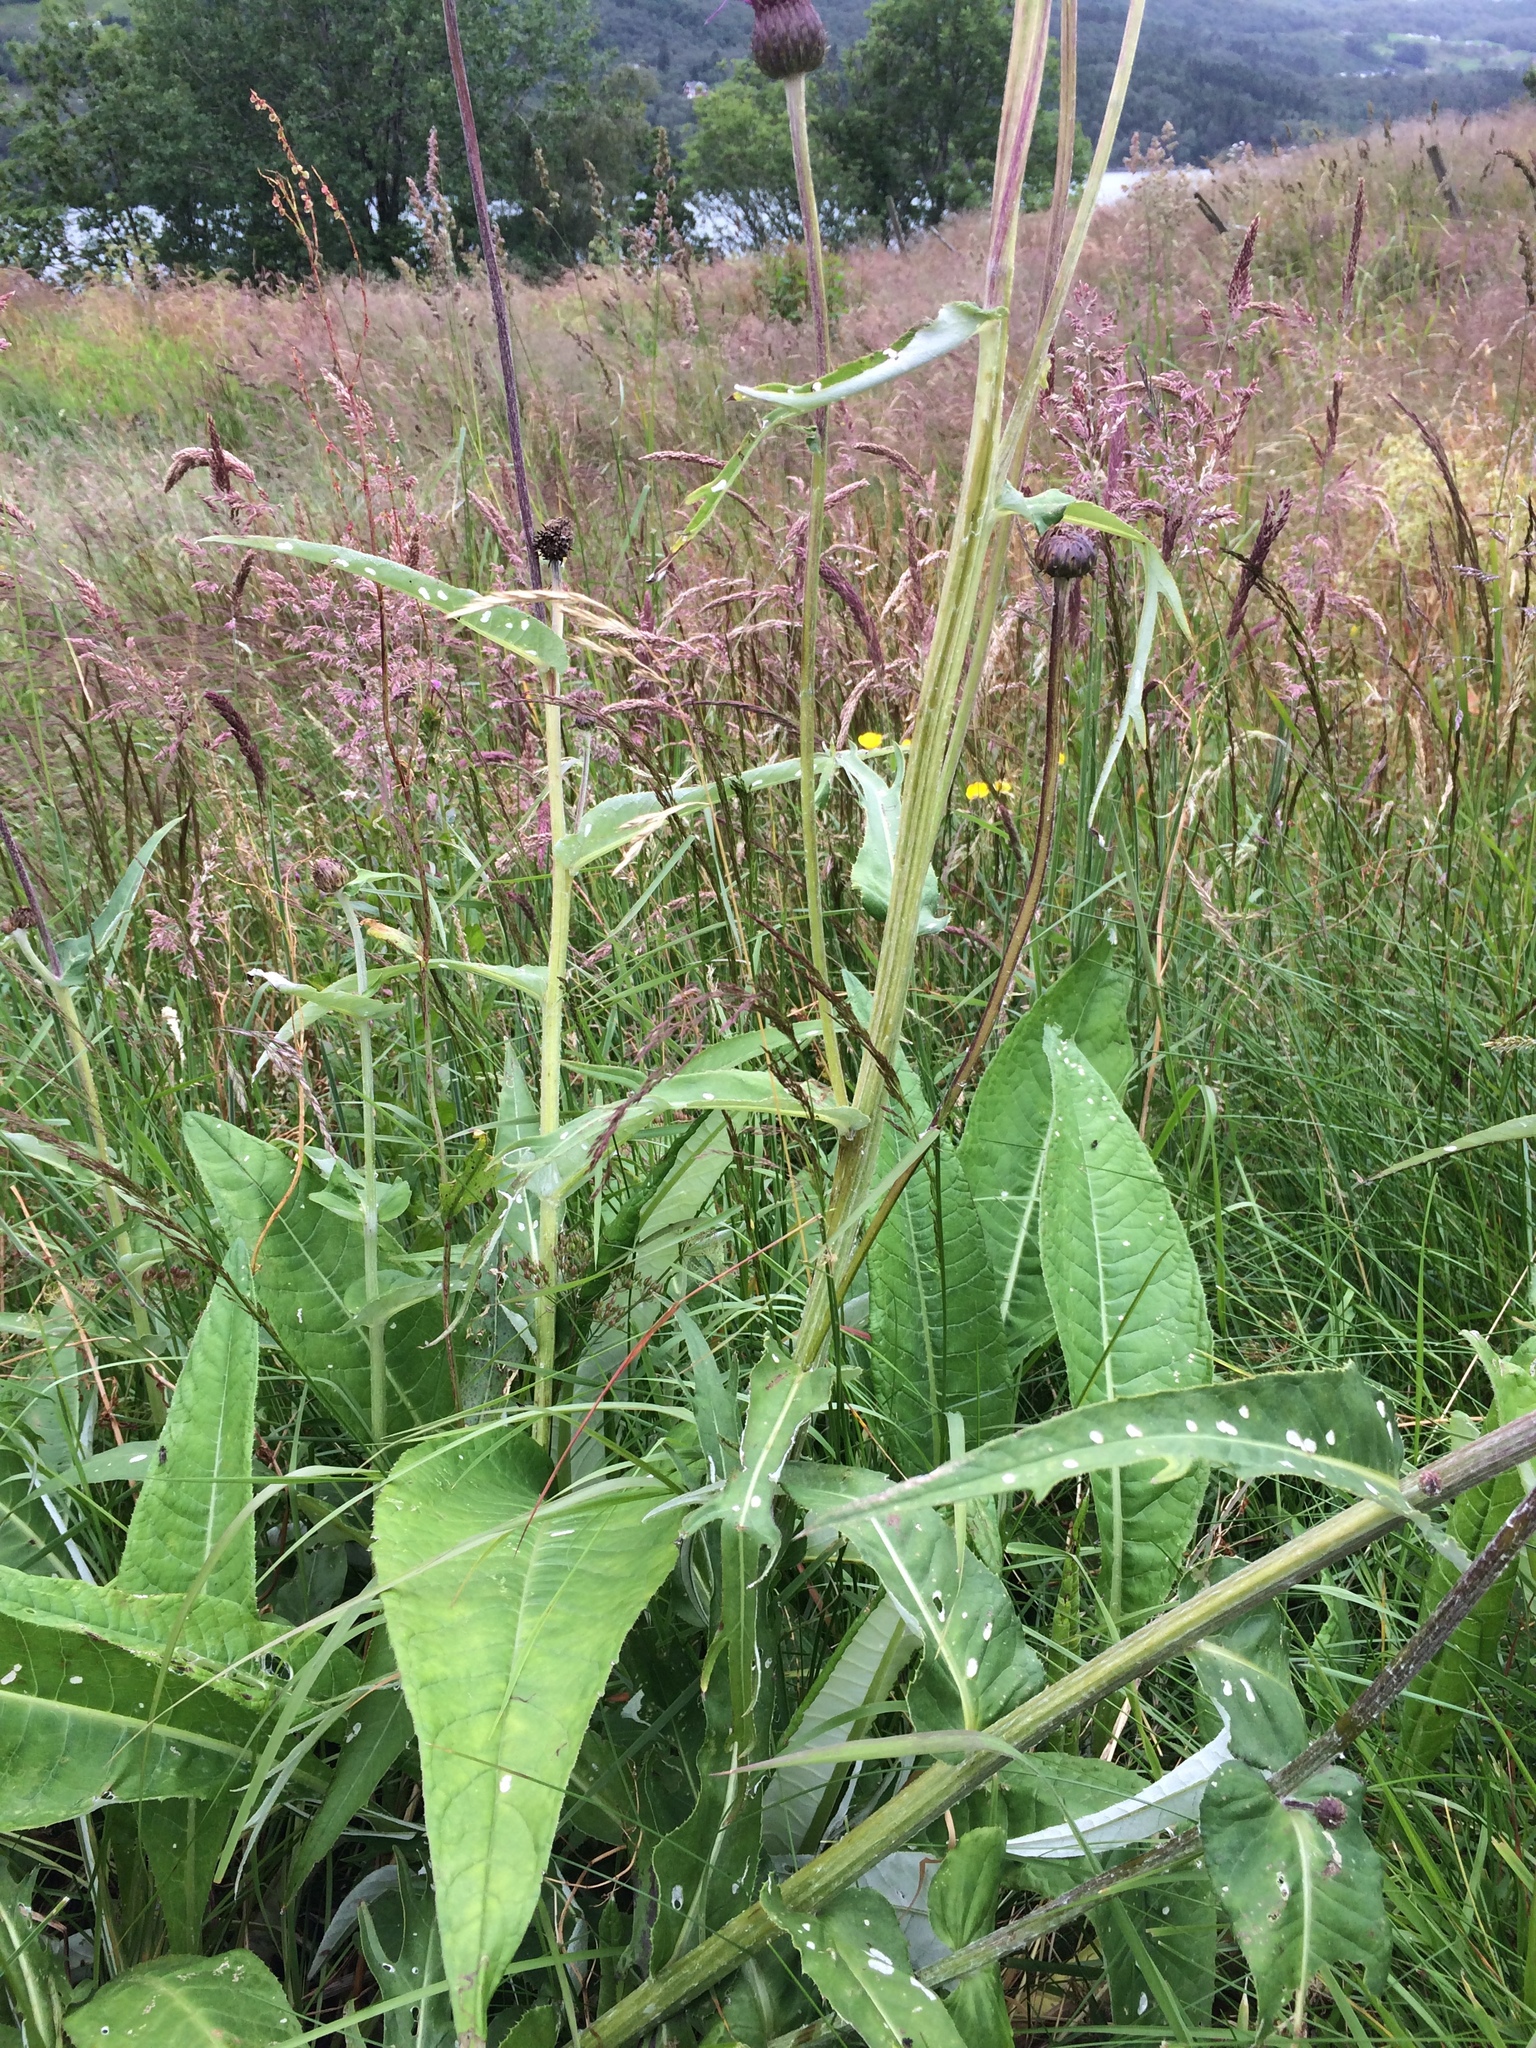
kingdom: Plantae
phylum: Tracheophyta
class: Magnoliopsida
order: Asterales
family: Asteraceae
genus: Cirsium
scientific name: Cirsium heterophyllum
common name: Melancholy thistle
